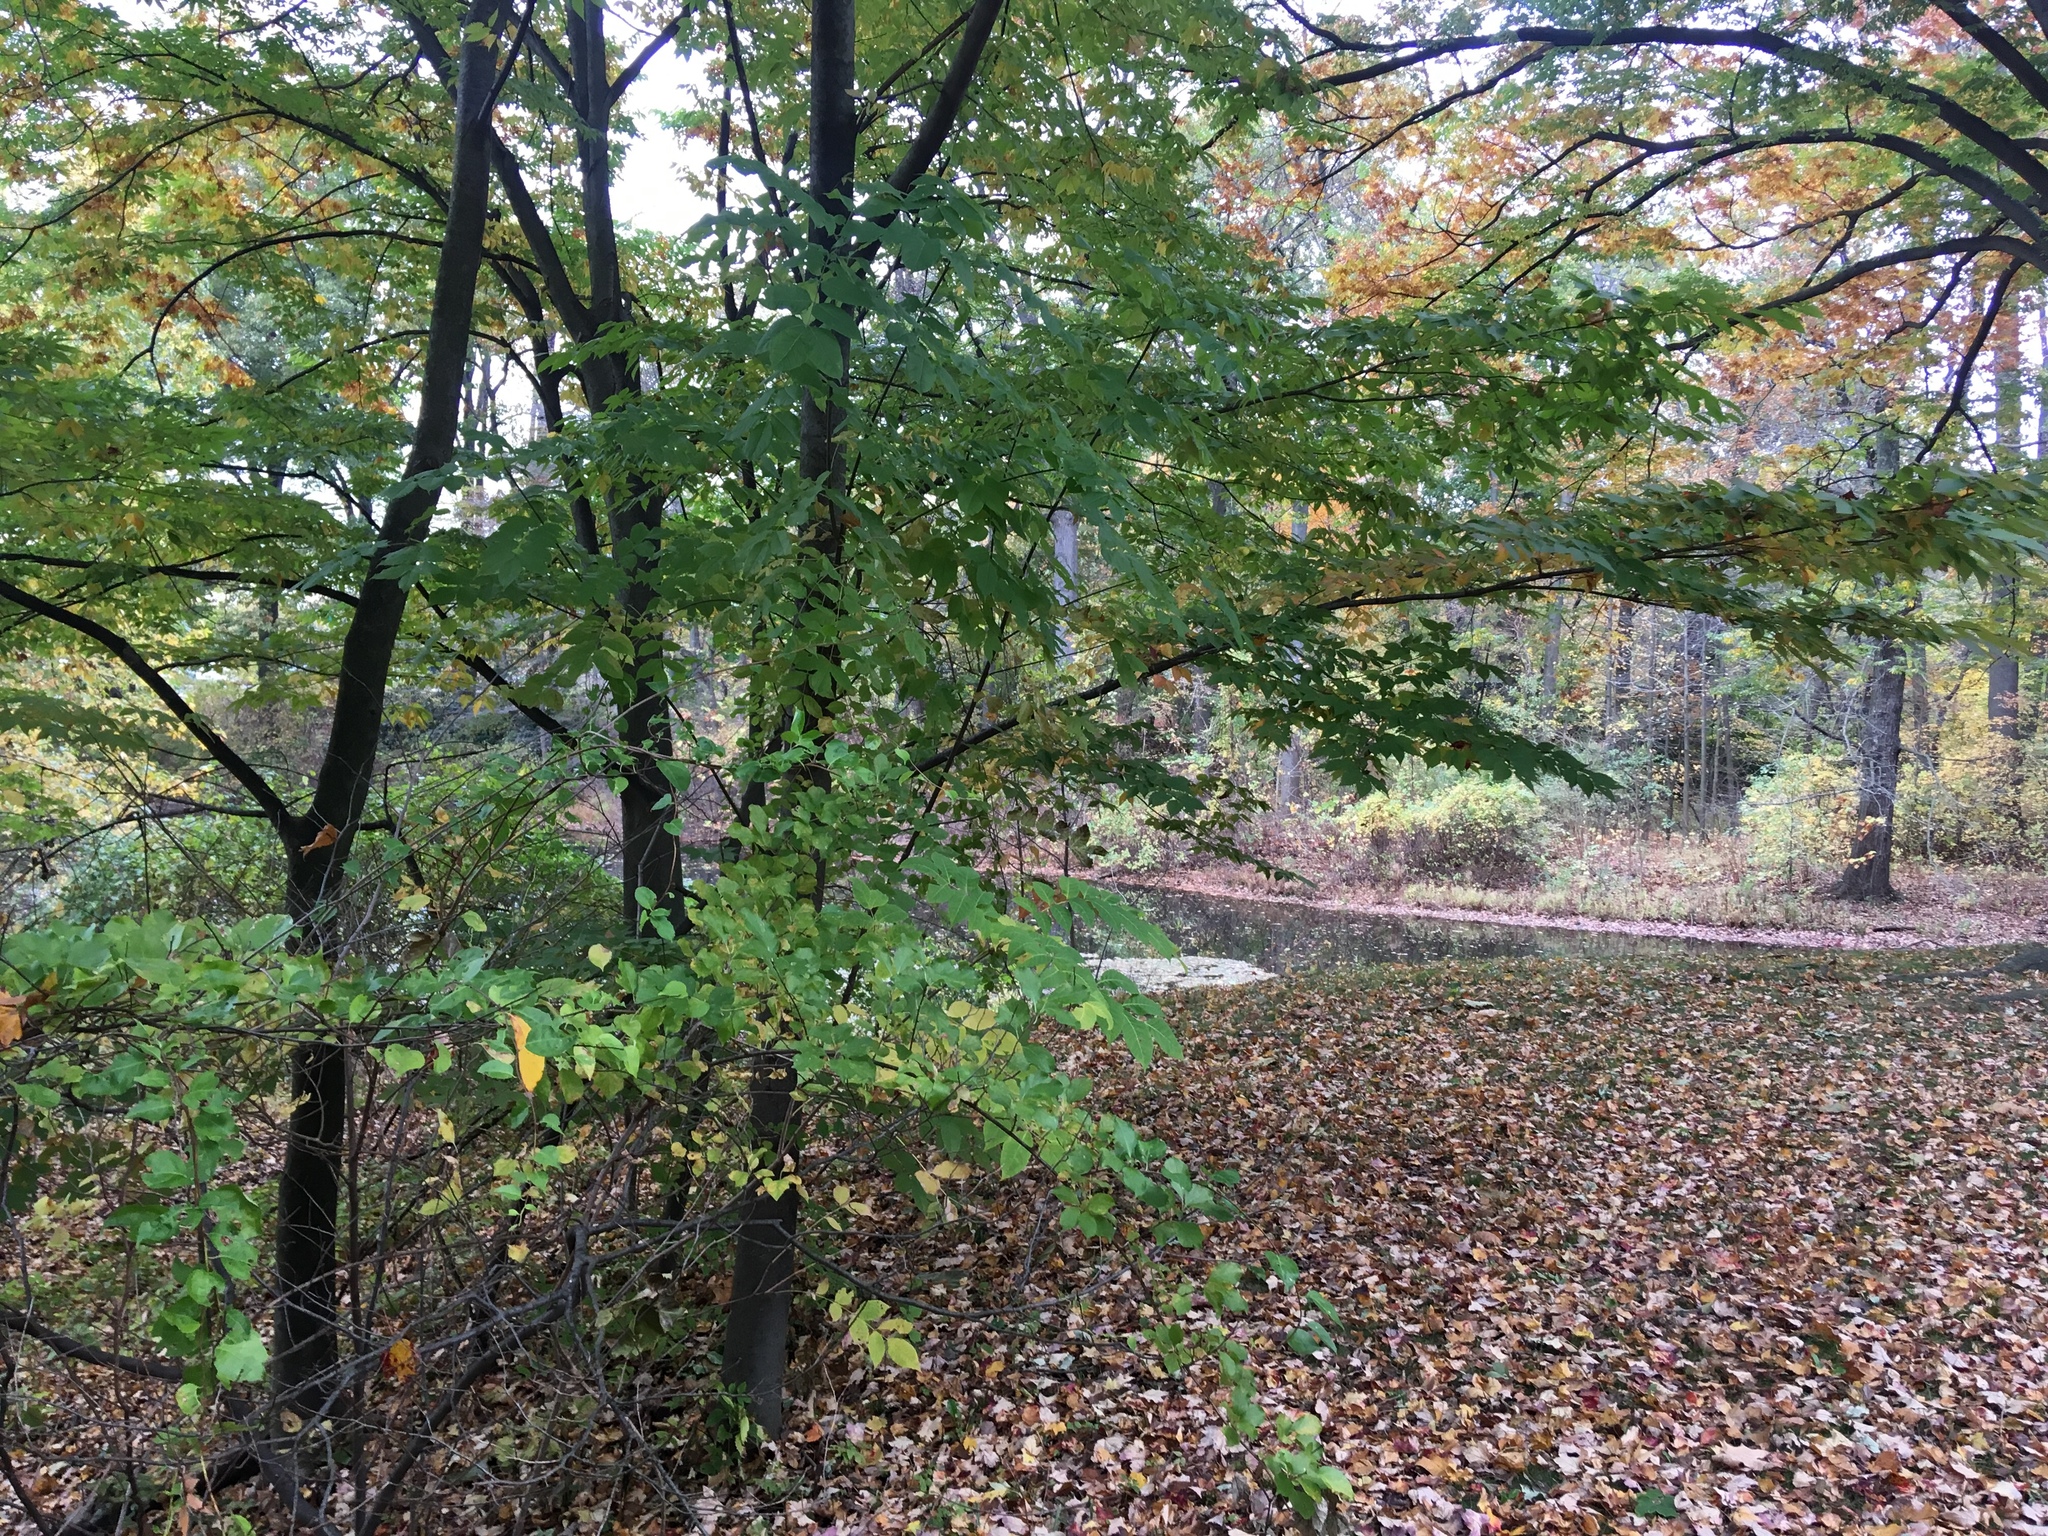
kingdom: Plantae
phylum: Tracheophyta
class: Magnoliopsida
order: Celastrales
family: Celastraceae
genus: Celastrus
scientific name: Celastrus orbiculatus
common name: Oriental bittersweet
